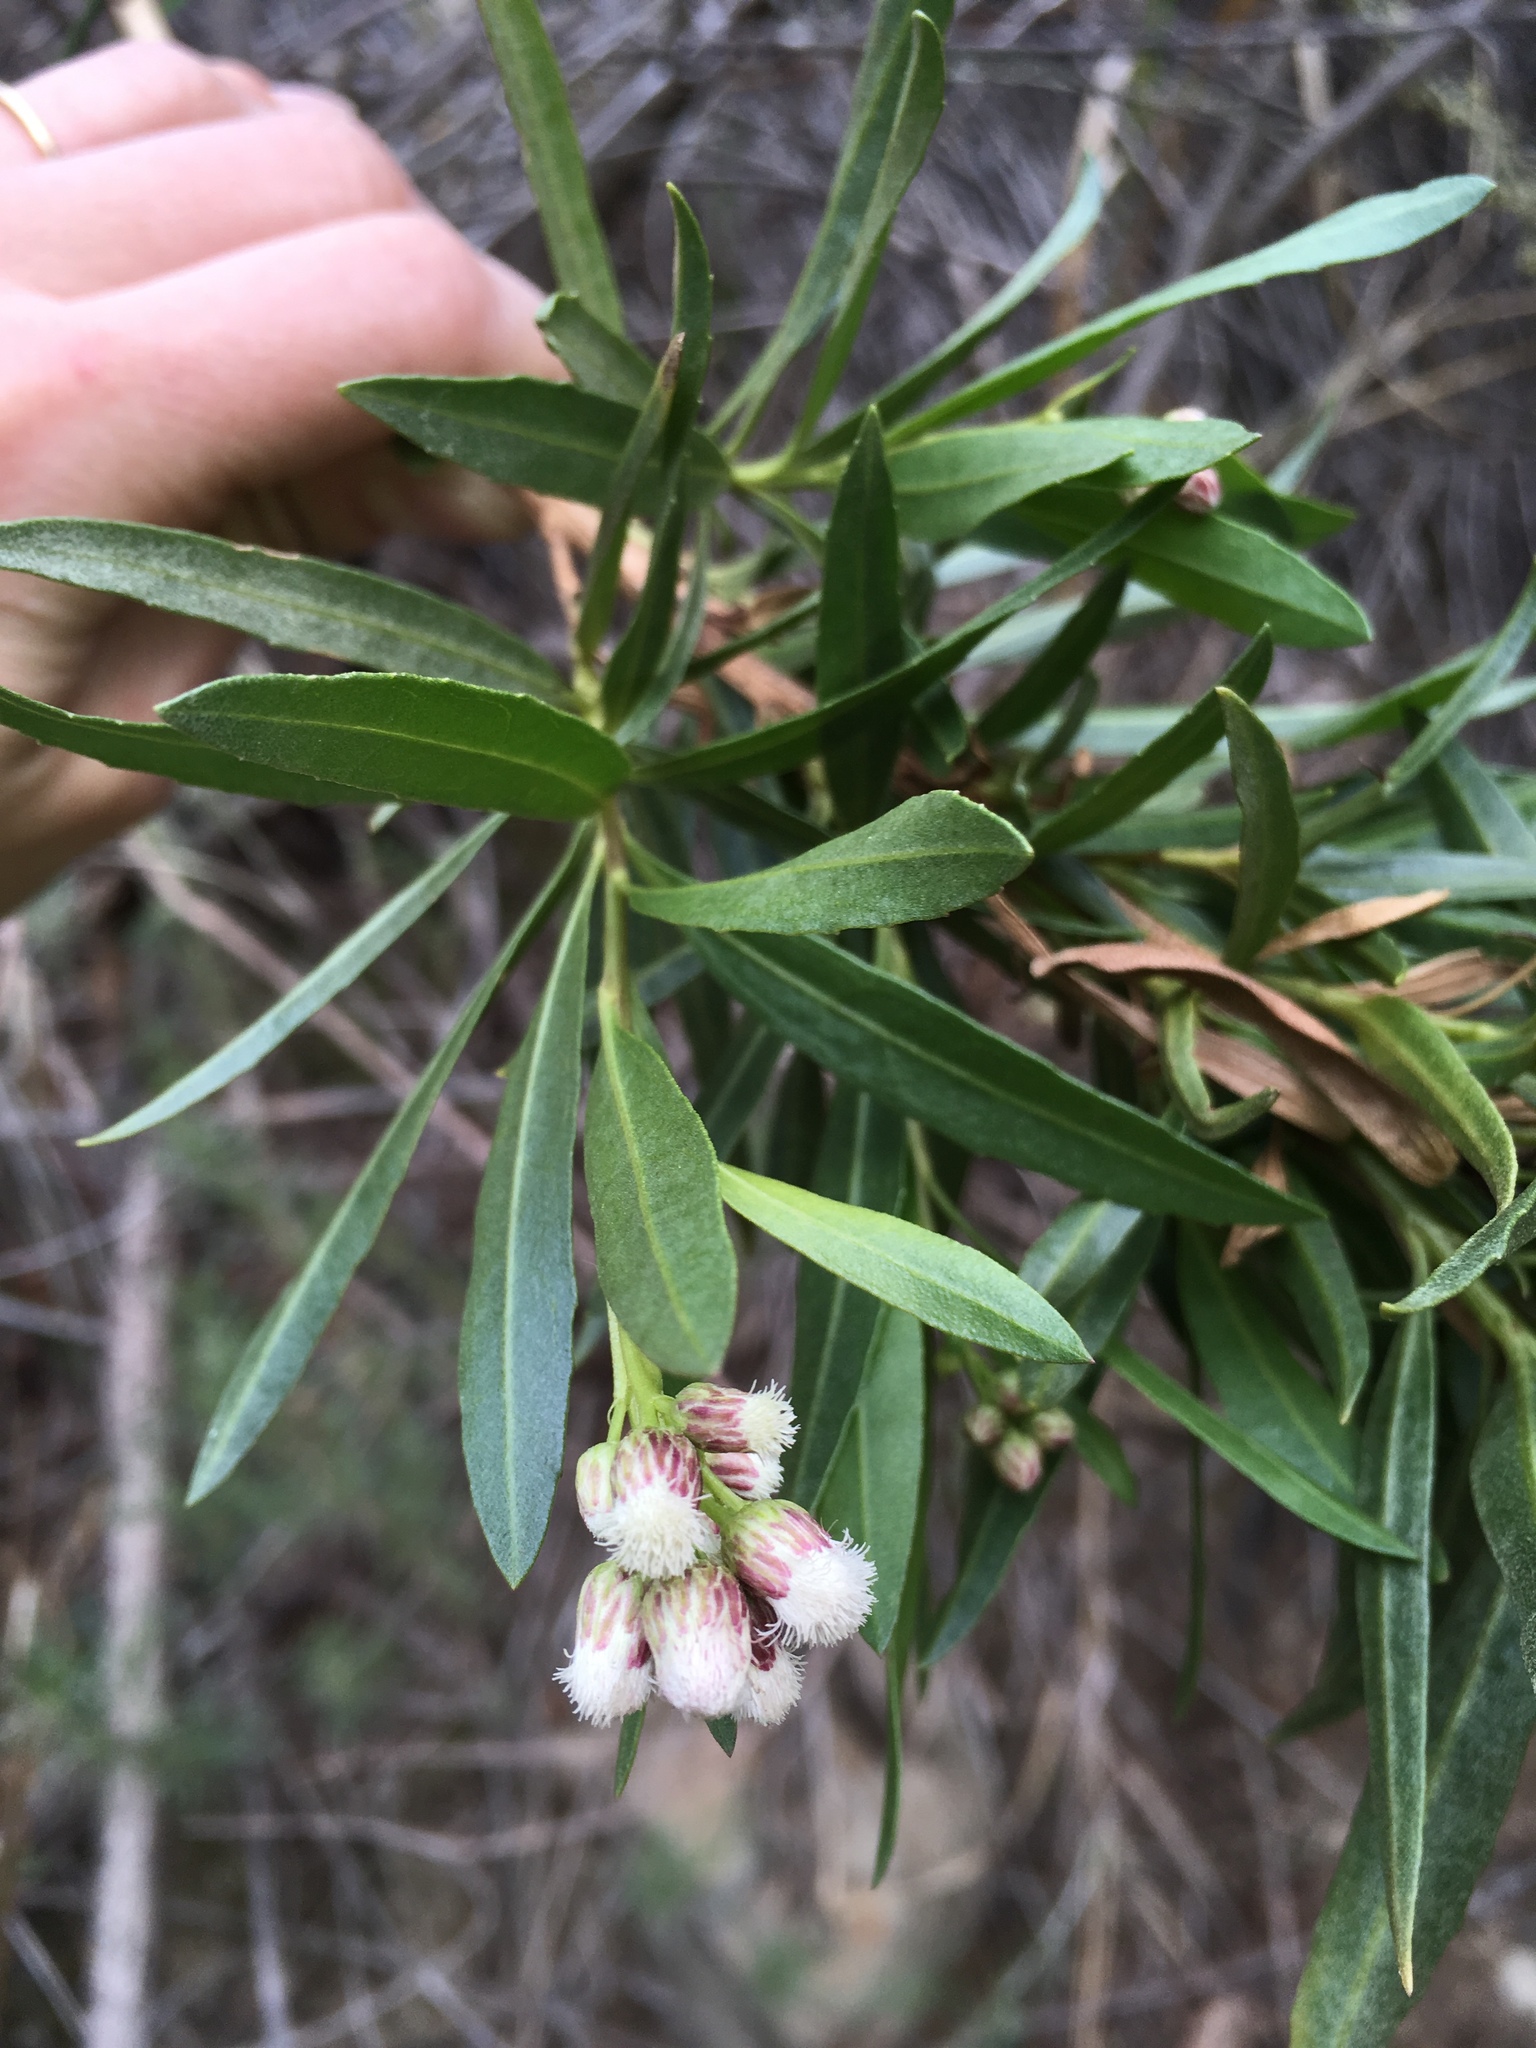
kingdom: Plantae
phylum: Tracheophyta
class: Magnoliopsida
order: Asterales
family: Asteraceae
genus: Baccharis
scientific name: Baccharis salicifolia
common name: Sticky baccharis
